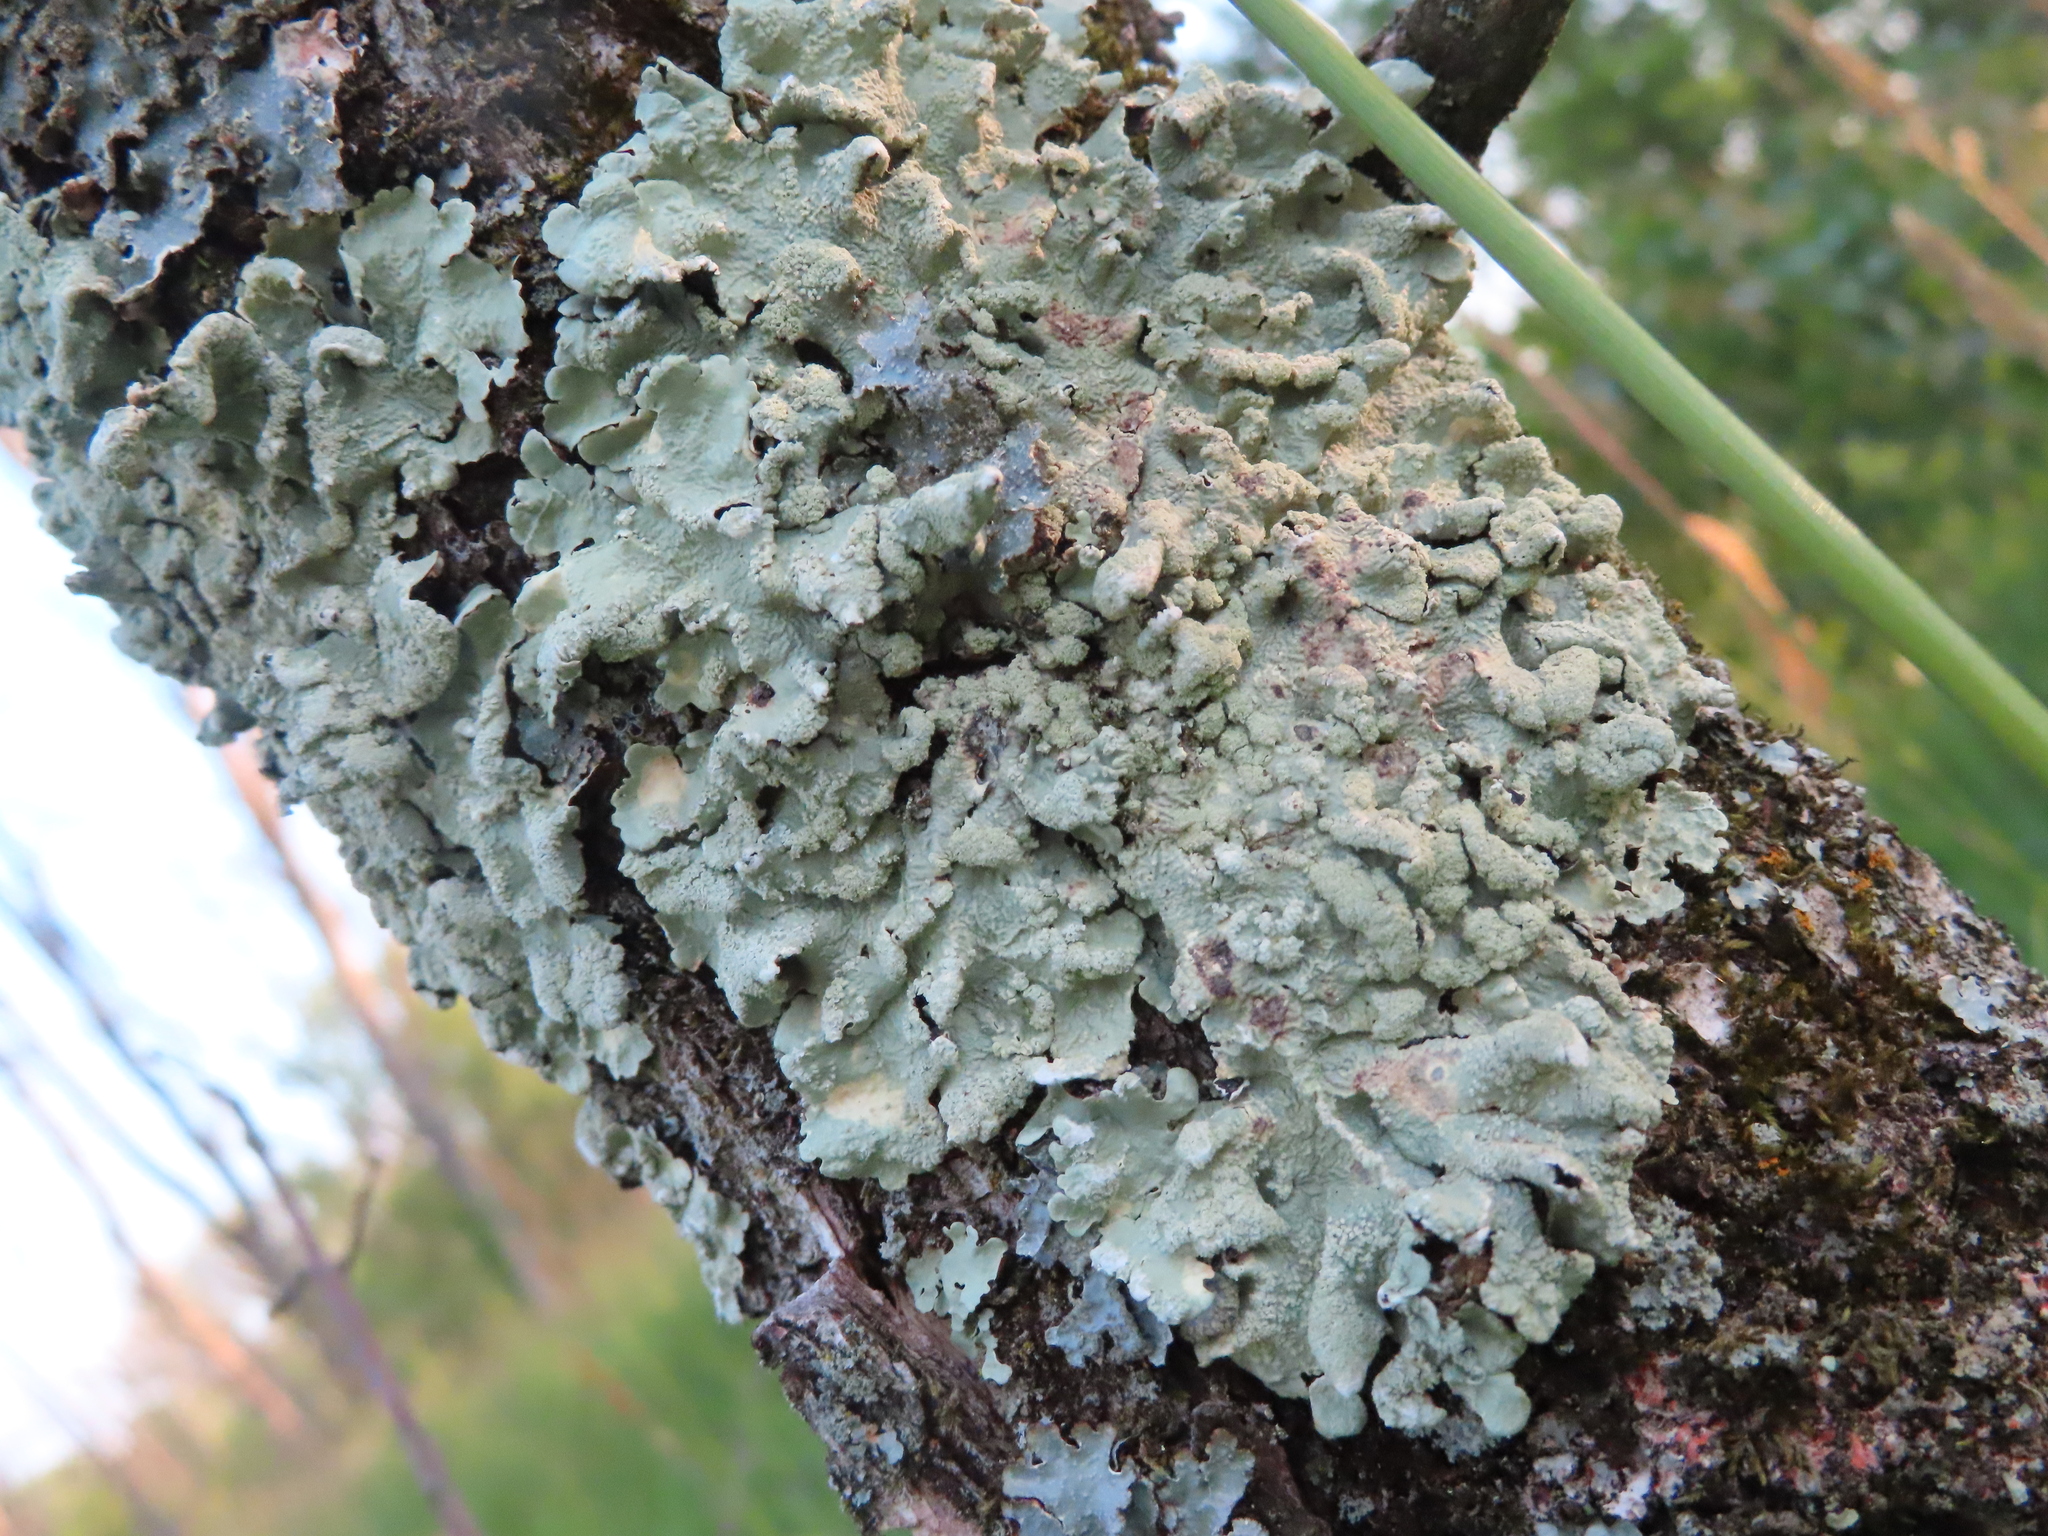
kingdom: Fungi
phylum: Ascomycota
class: Lecanoromycetes
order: Lecanorales
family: Parmeliaceae
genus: Flavoparmelia
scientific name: Flavoparmelia caperata
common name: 40-mile per hour lichen
